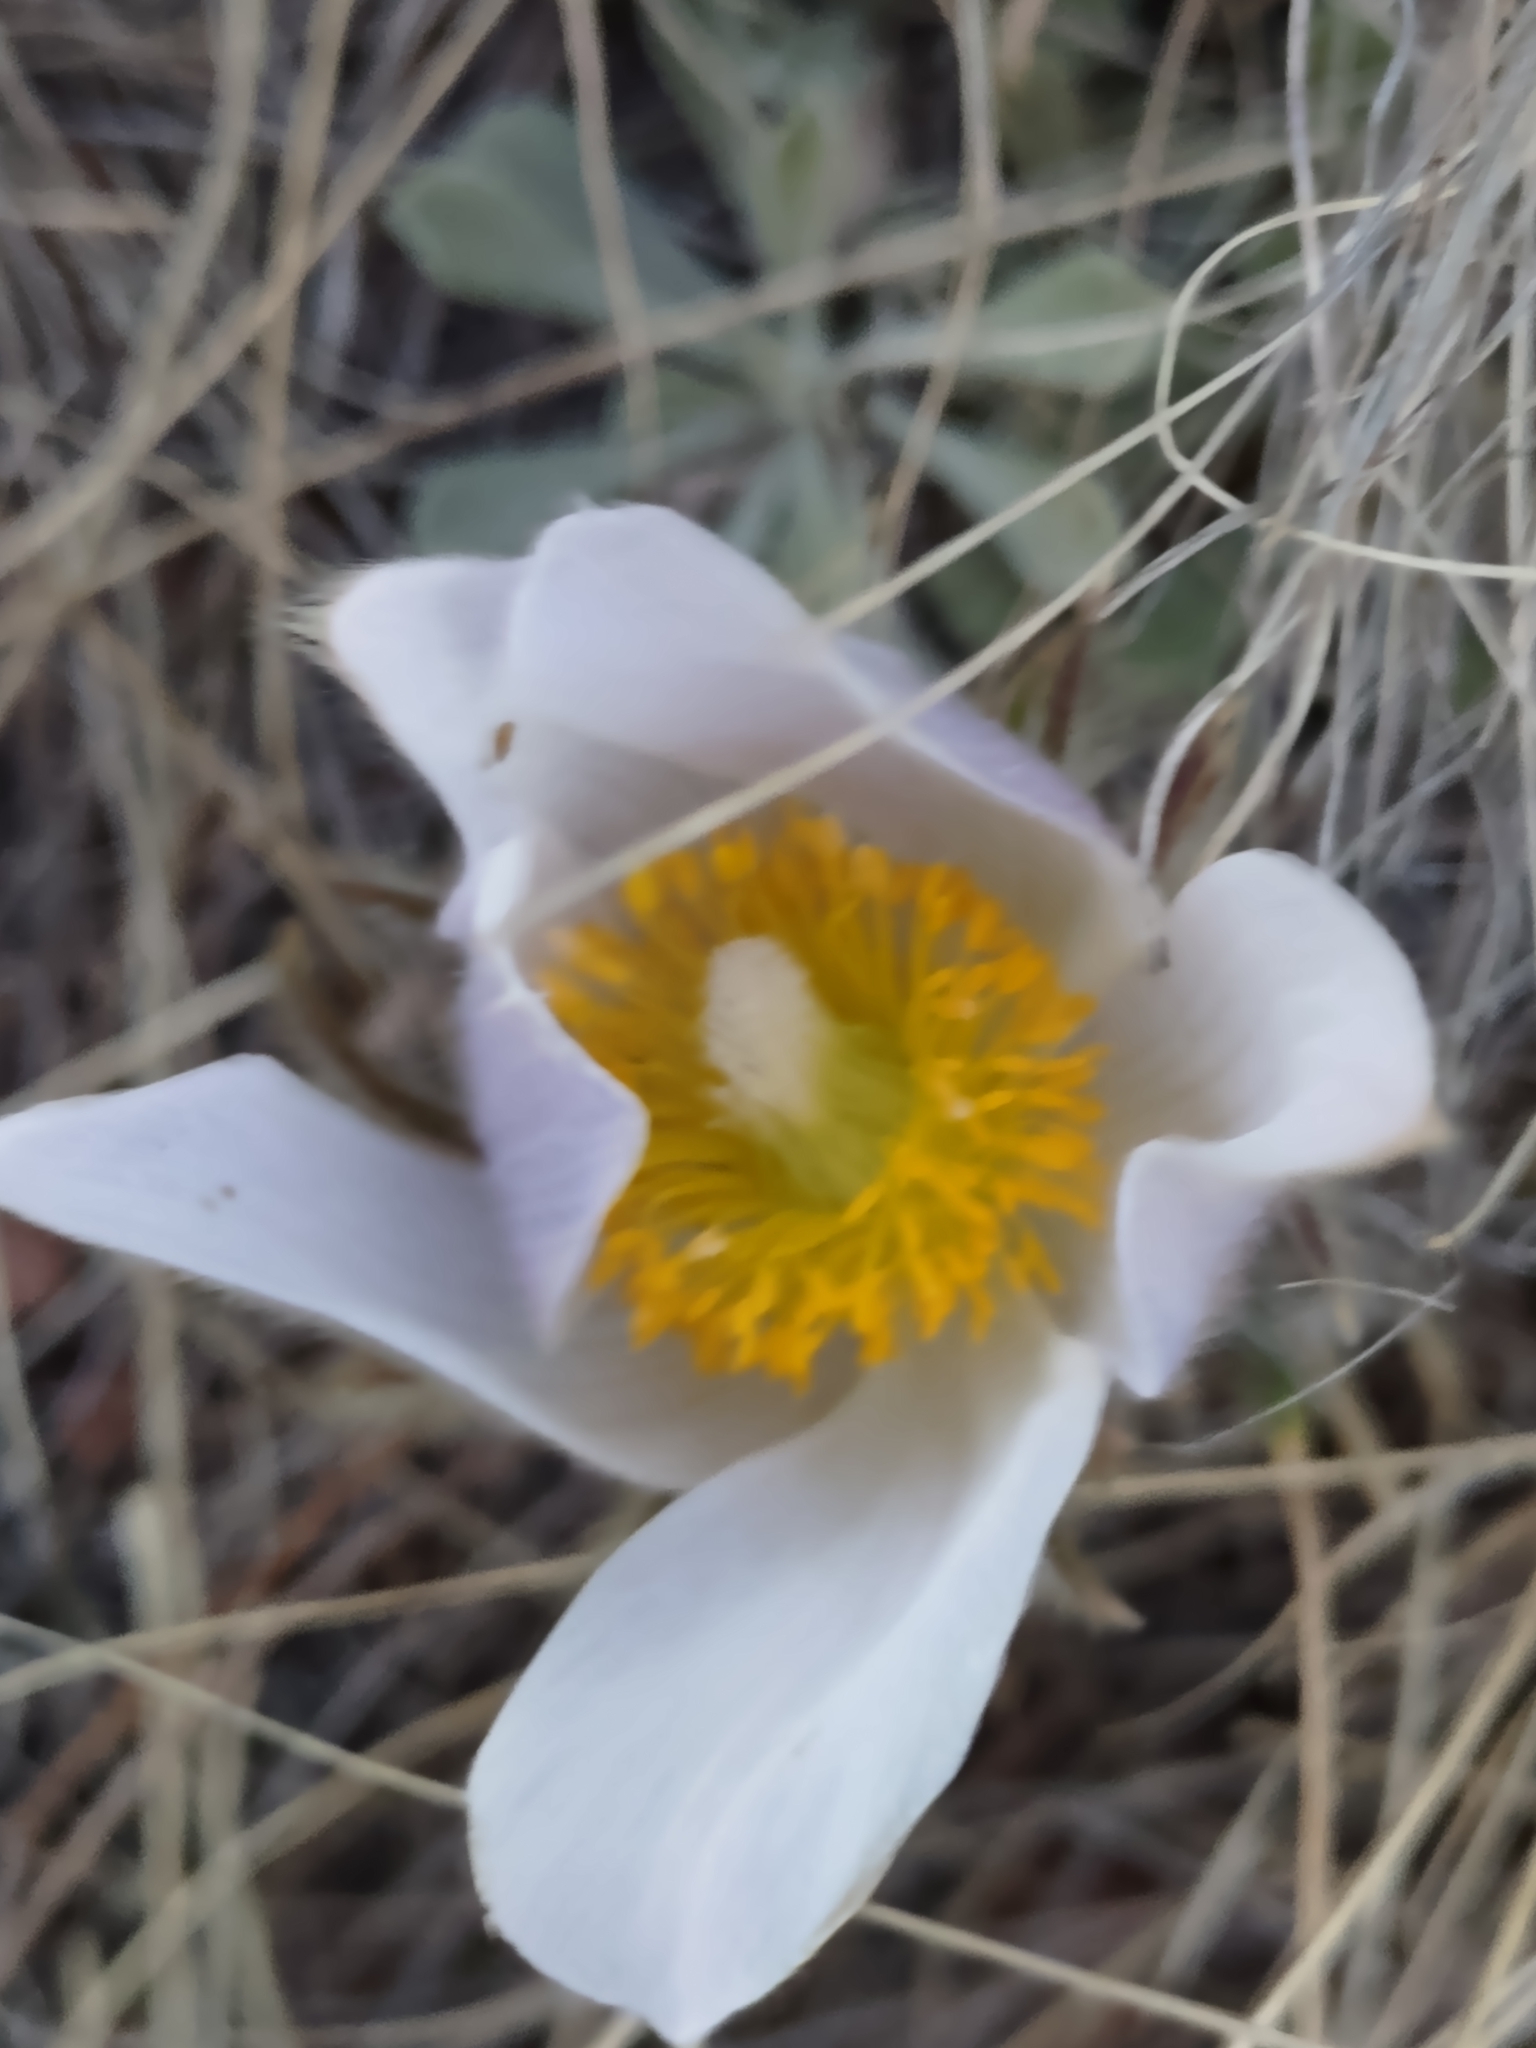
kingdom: Plantae
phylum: Tracheophyta
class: Magnoliopsida
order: Ranunculales
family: Ranunculaceae
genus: Pulsatilla
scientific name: Pulsatilla nuttalliana
